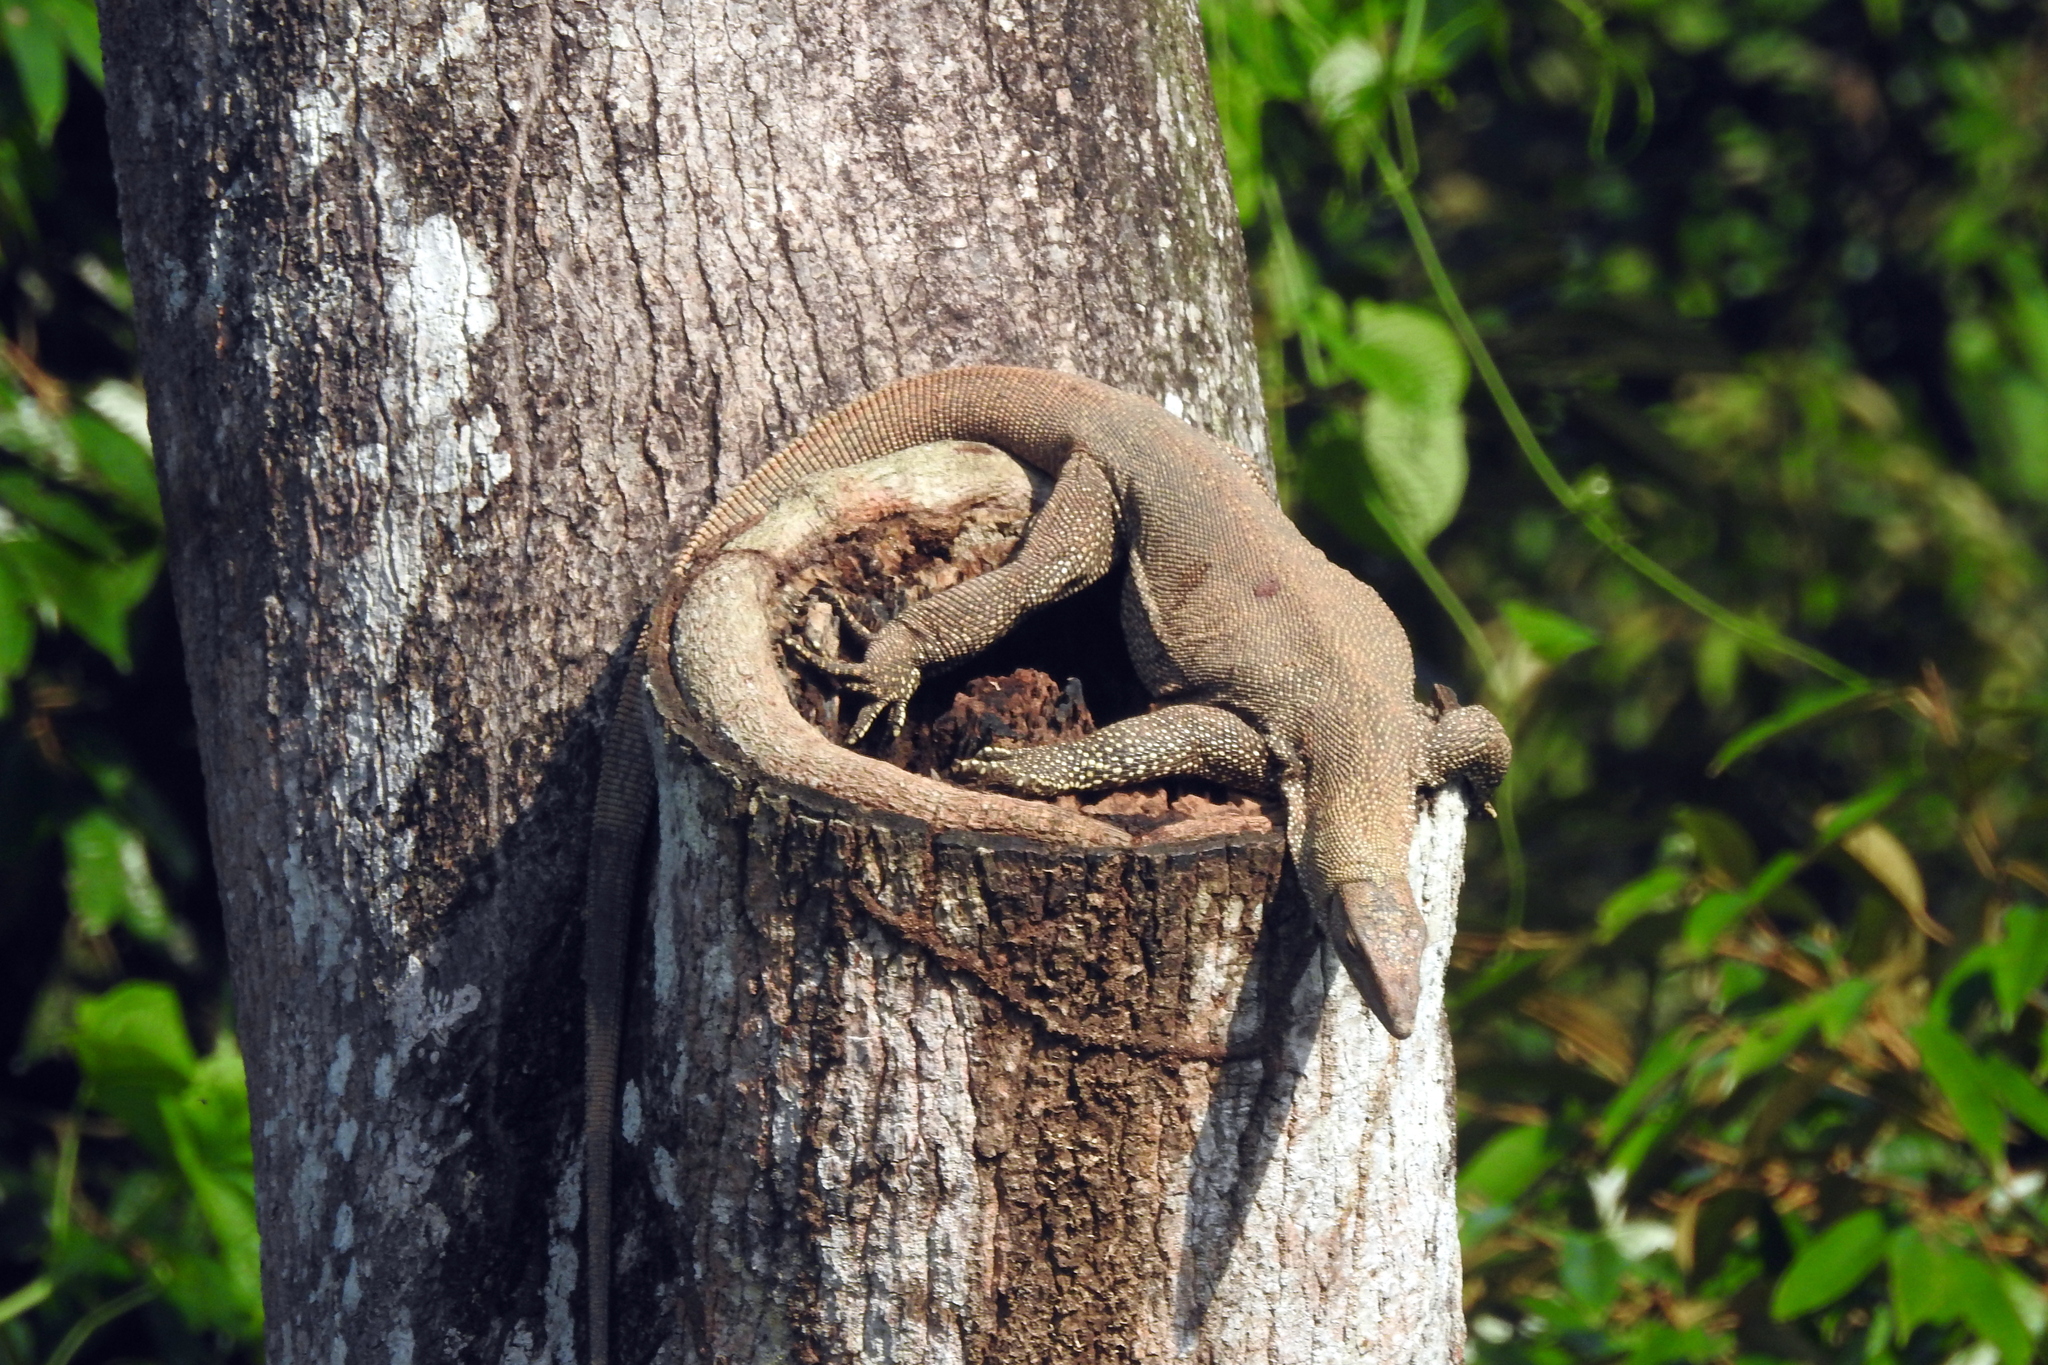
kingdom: Animalia
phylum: Chordata
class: Squamata
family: Varanidae
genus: Varanus
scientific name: Varanus nebulosus
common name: Clouded monitor
